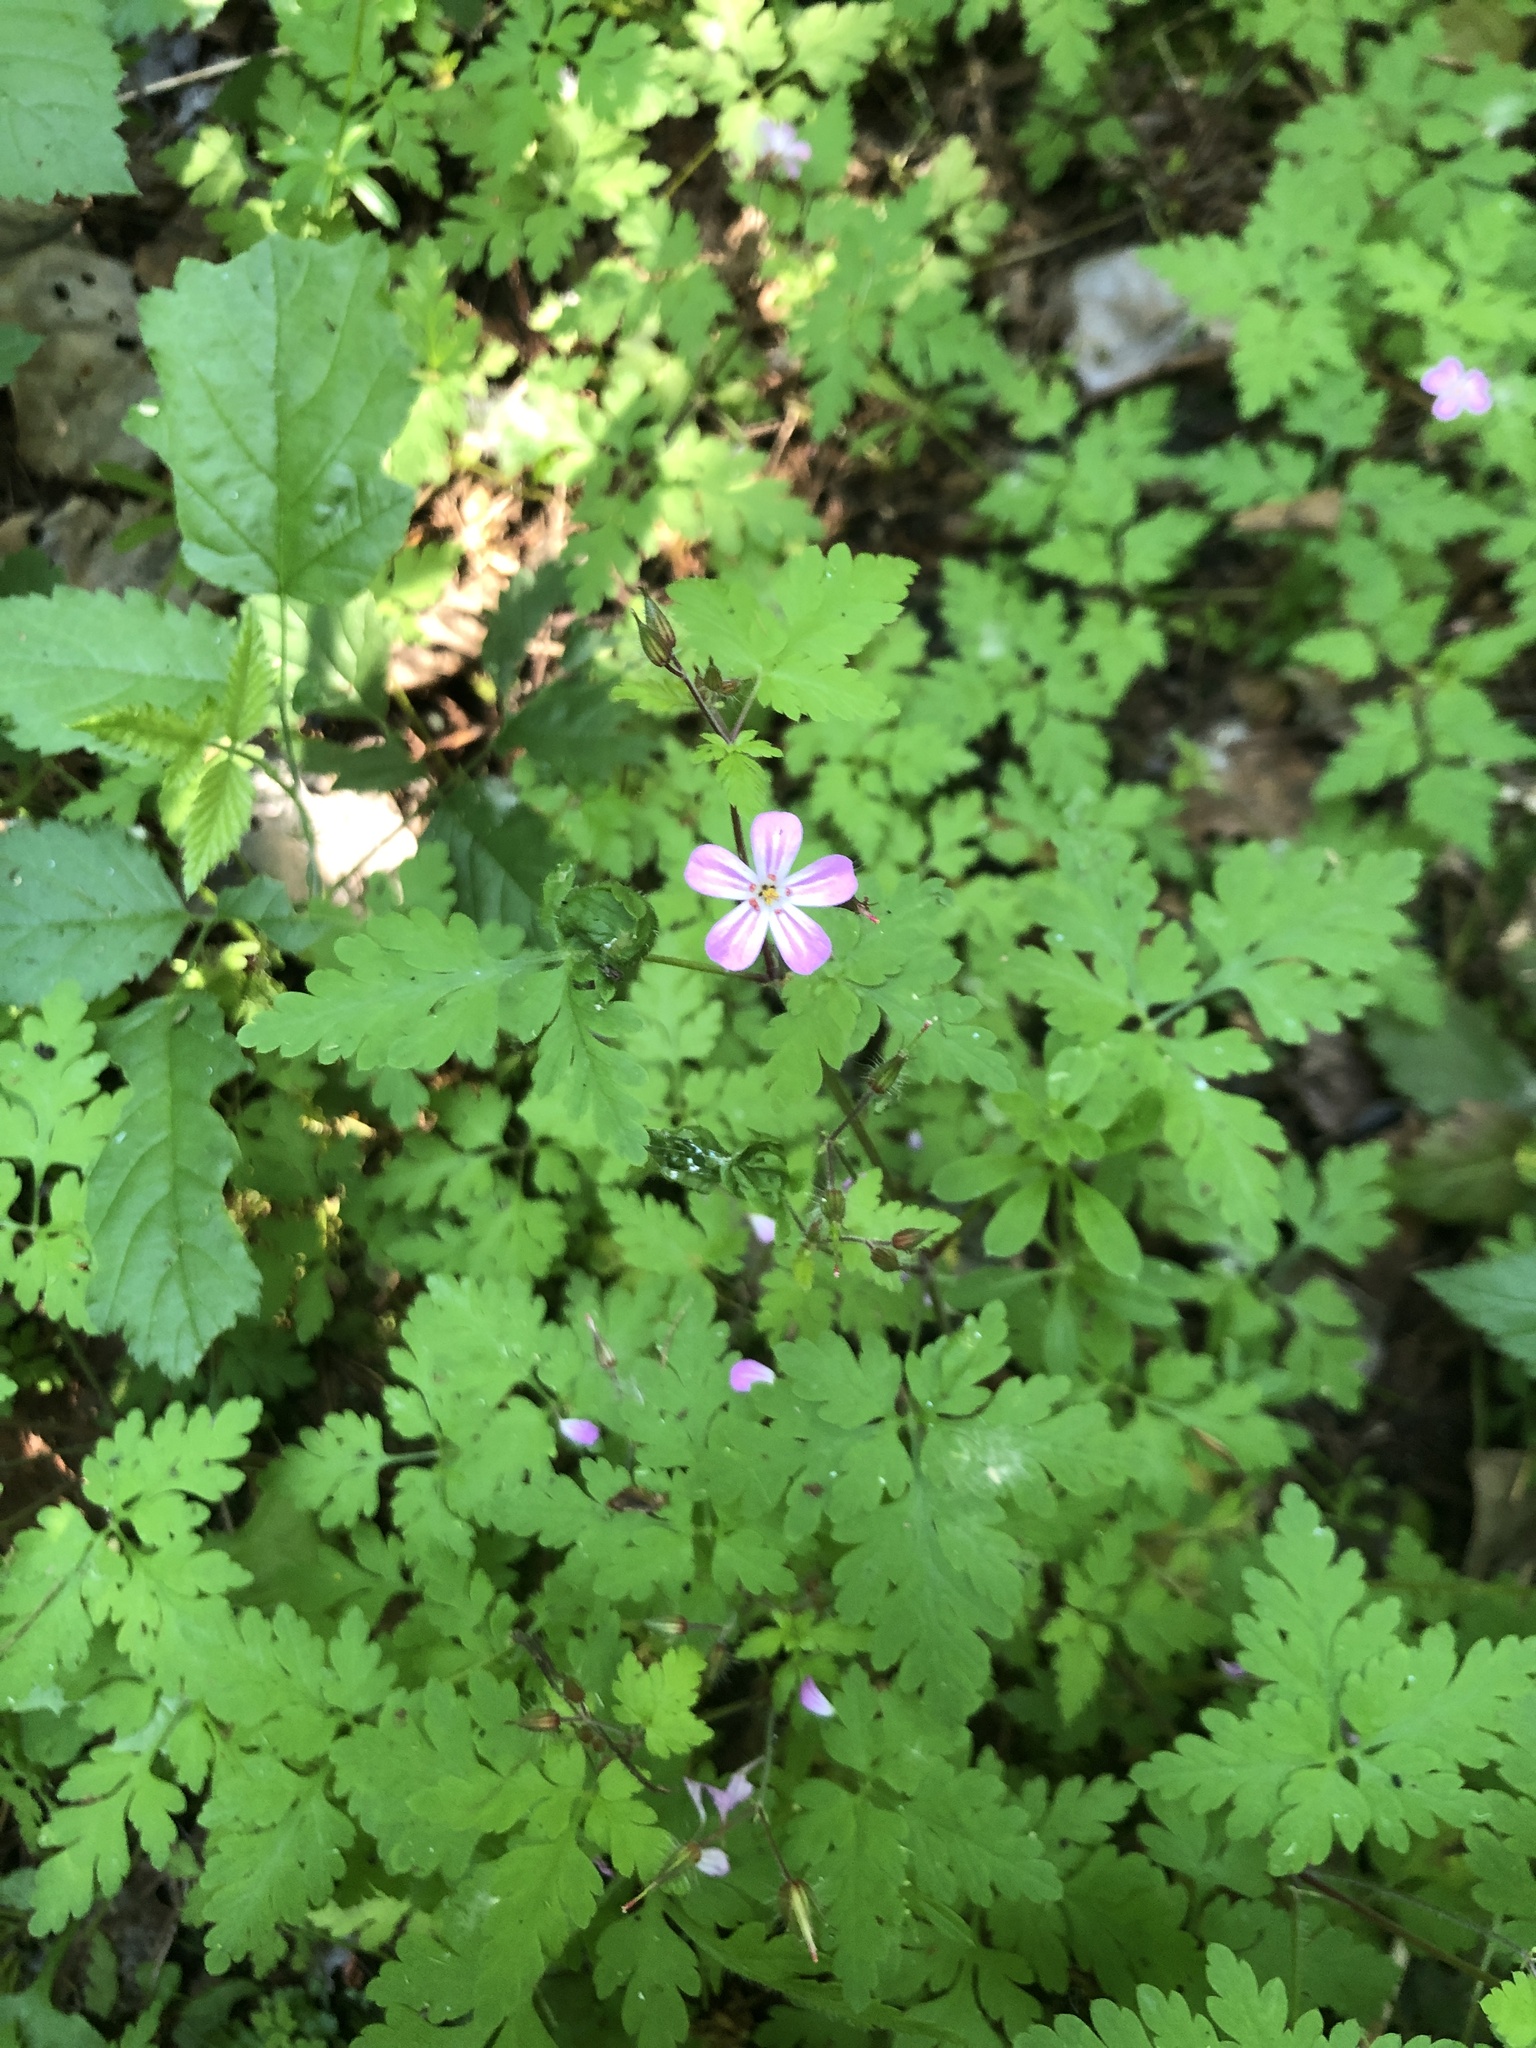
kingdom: Plantae
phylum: Tracheophyta
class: Magnoliopsida
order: Geraniales
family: Geraniaceae
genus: Geranium
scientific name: Geranium robertianum
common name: Herb-robert
